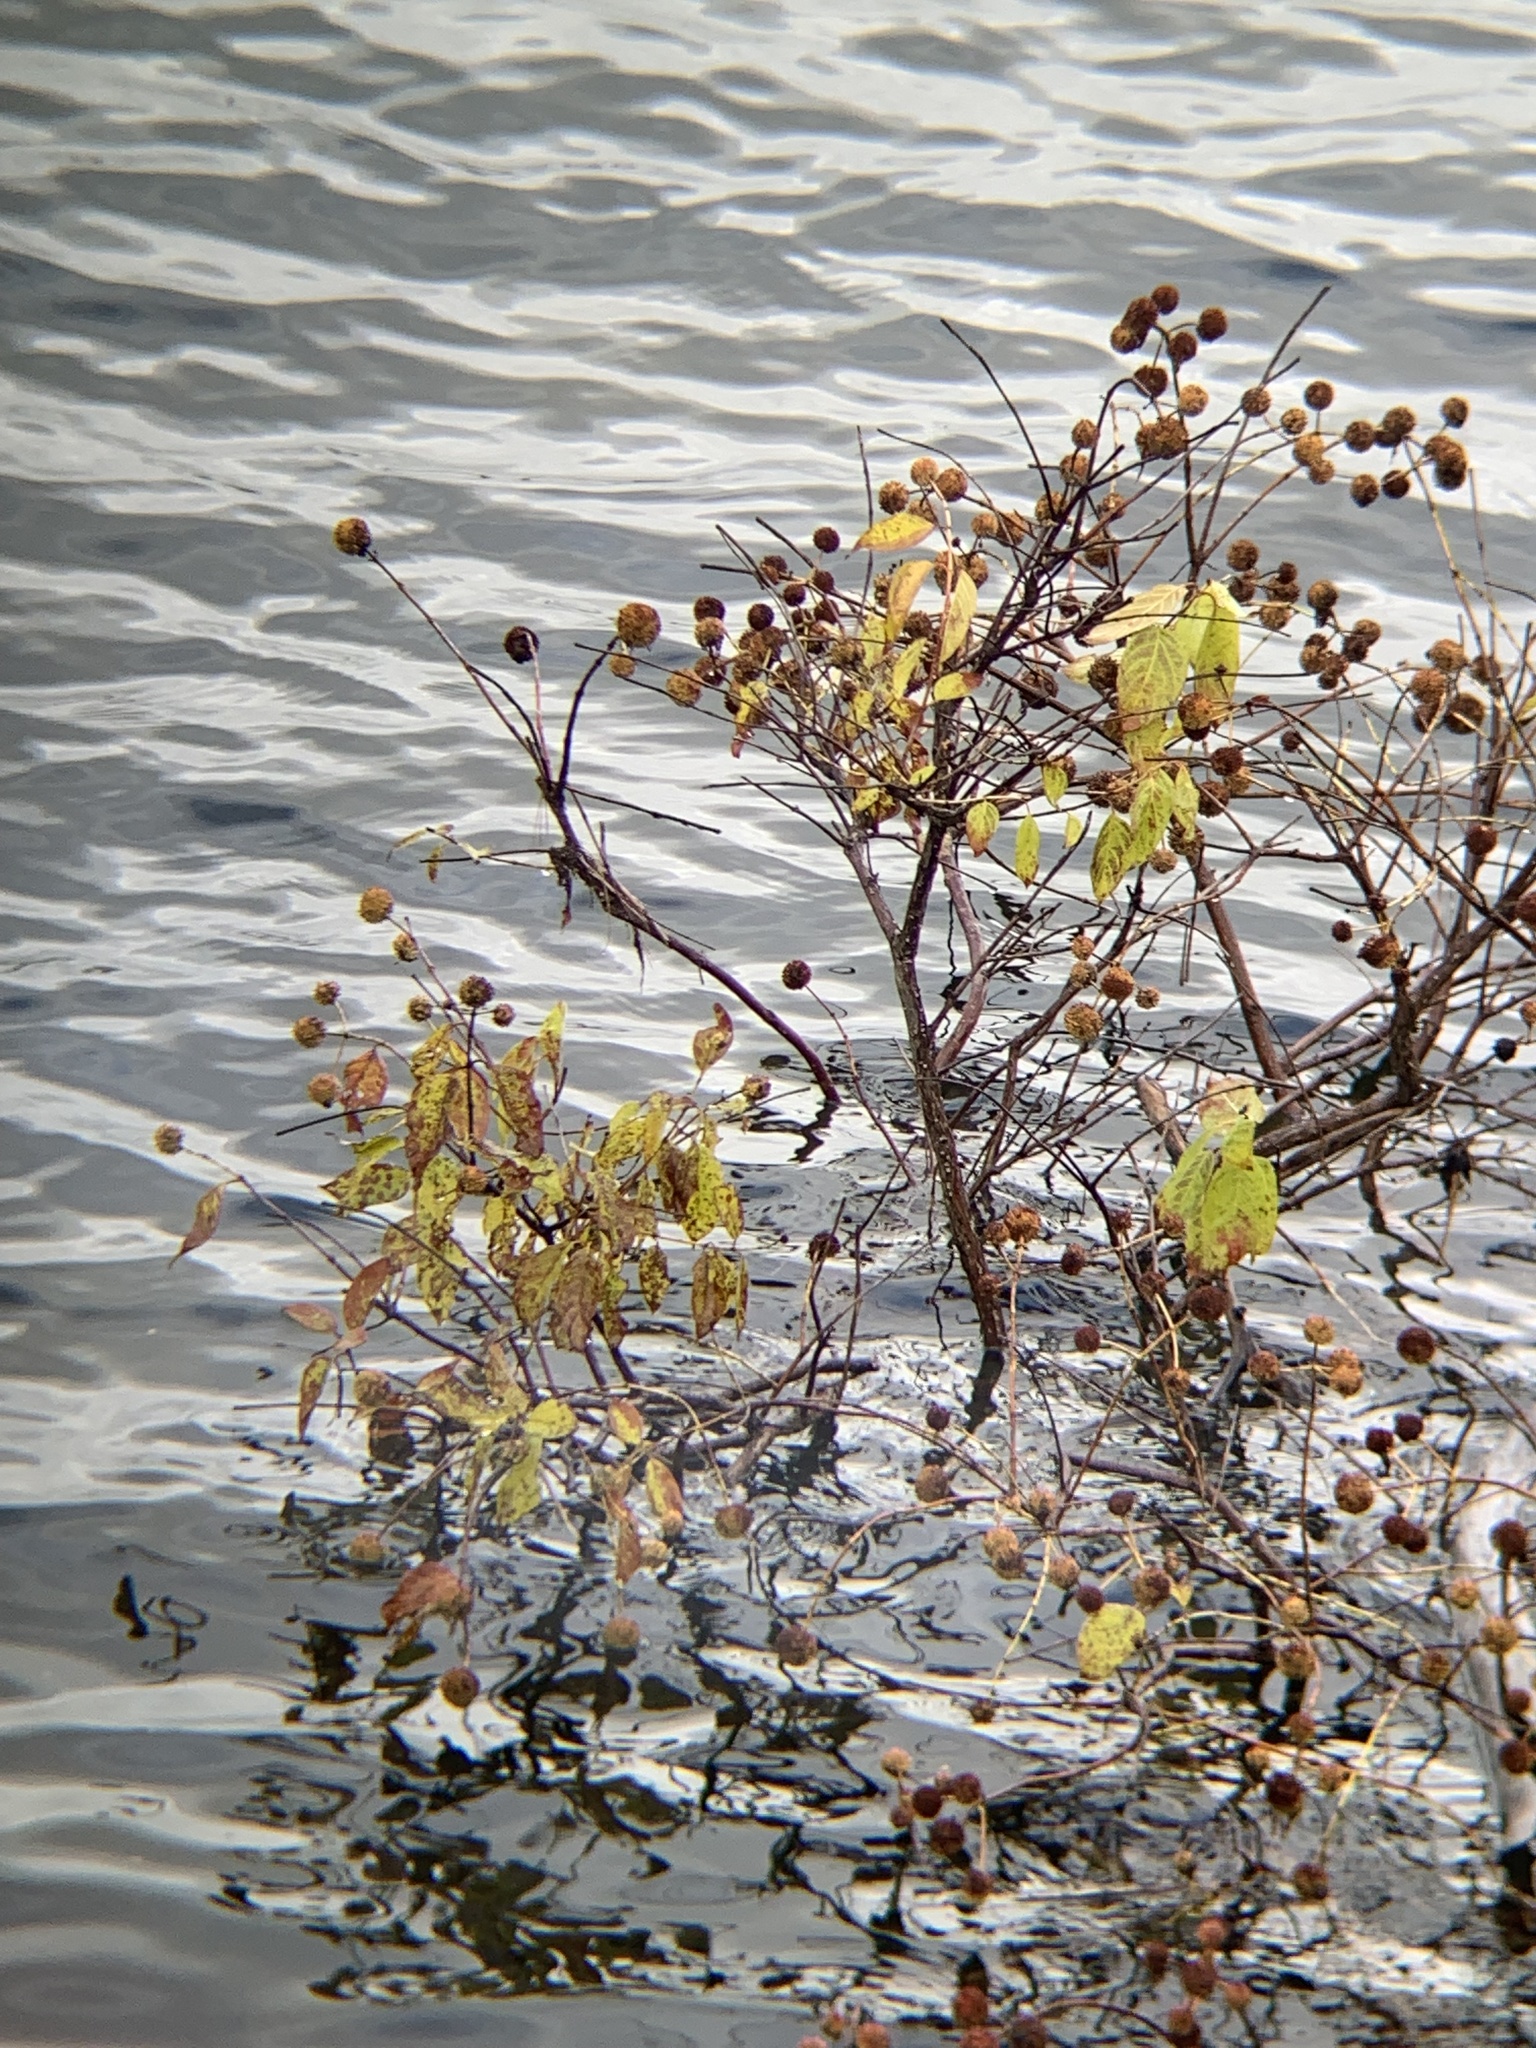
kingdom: Plantae
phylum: Tracheophyta
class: Magnoliopsida
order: Gentianales
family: Rubiaceae
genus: Cephalanthus
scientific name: Cephalanthus occidentalis
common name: Button-willow
